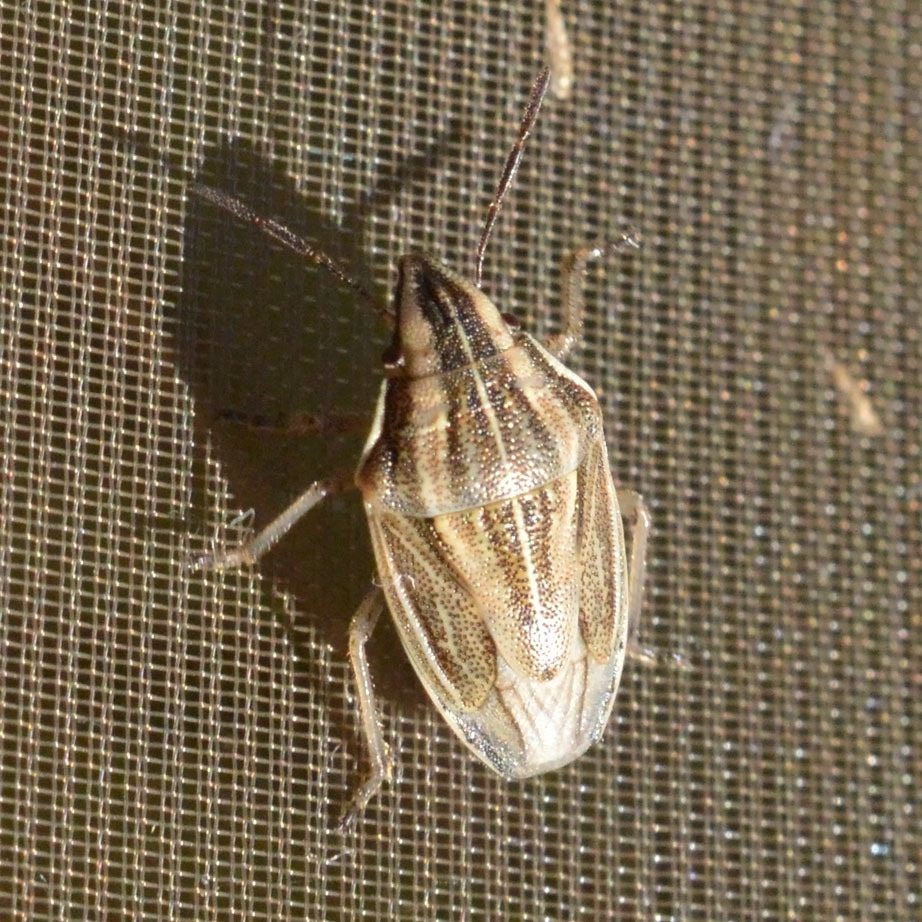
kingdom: Animalia
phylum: Arthropoda
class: Insecta
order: Hemiptera
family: Pentatomidae
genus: Aelia
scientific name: Aelia acuminata
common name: Bishop's mitre
